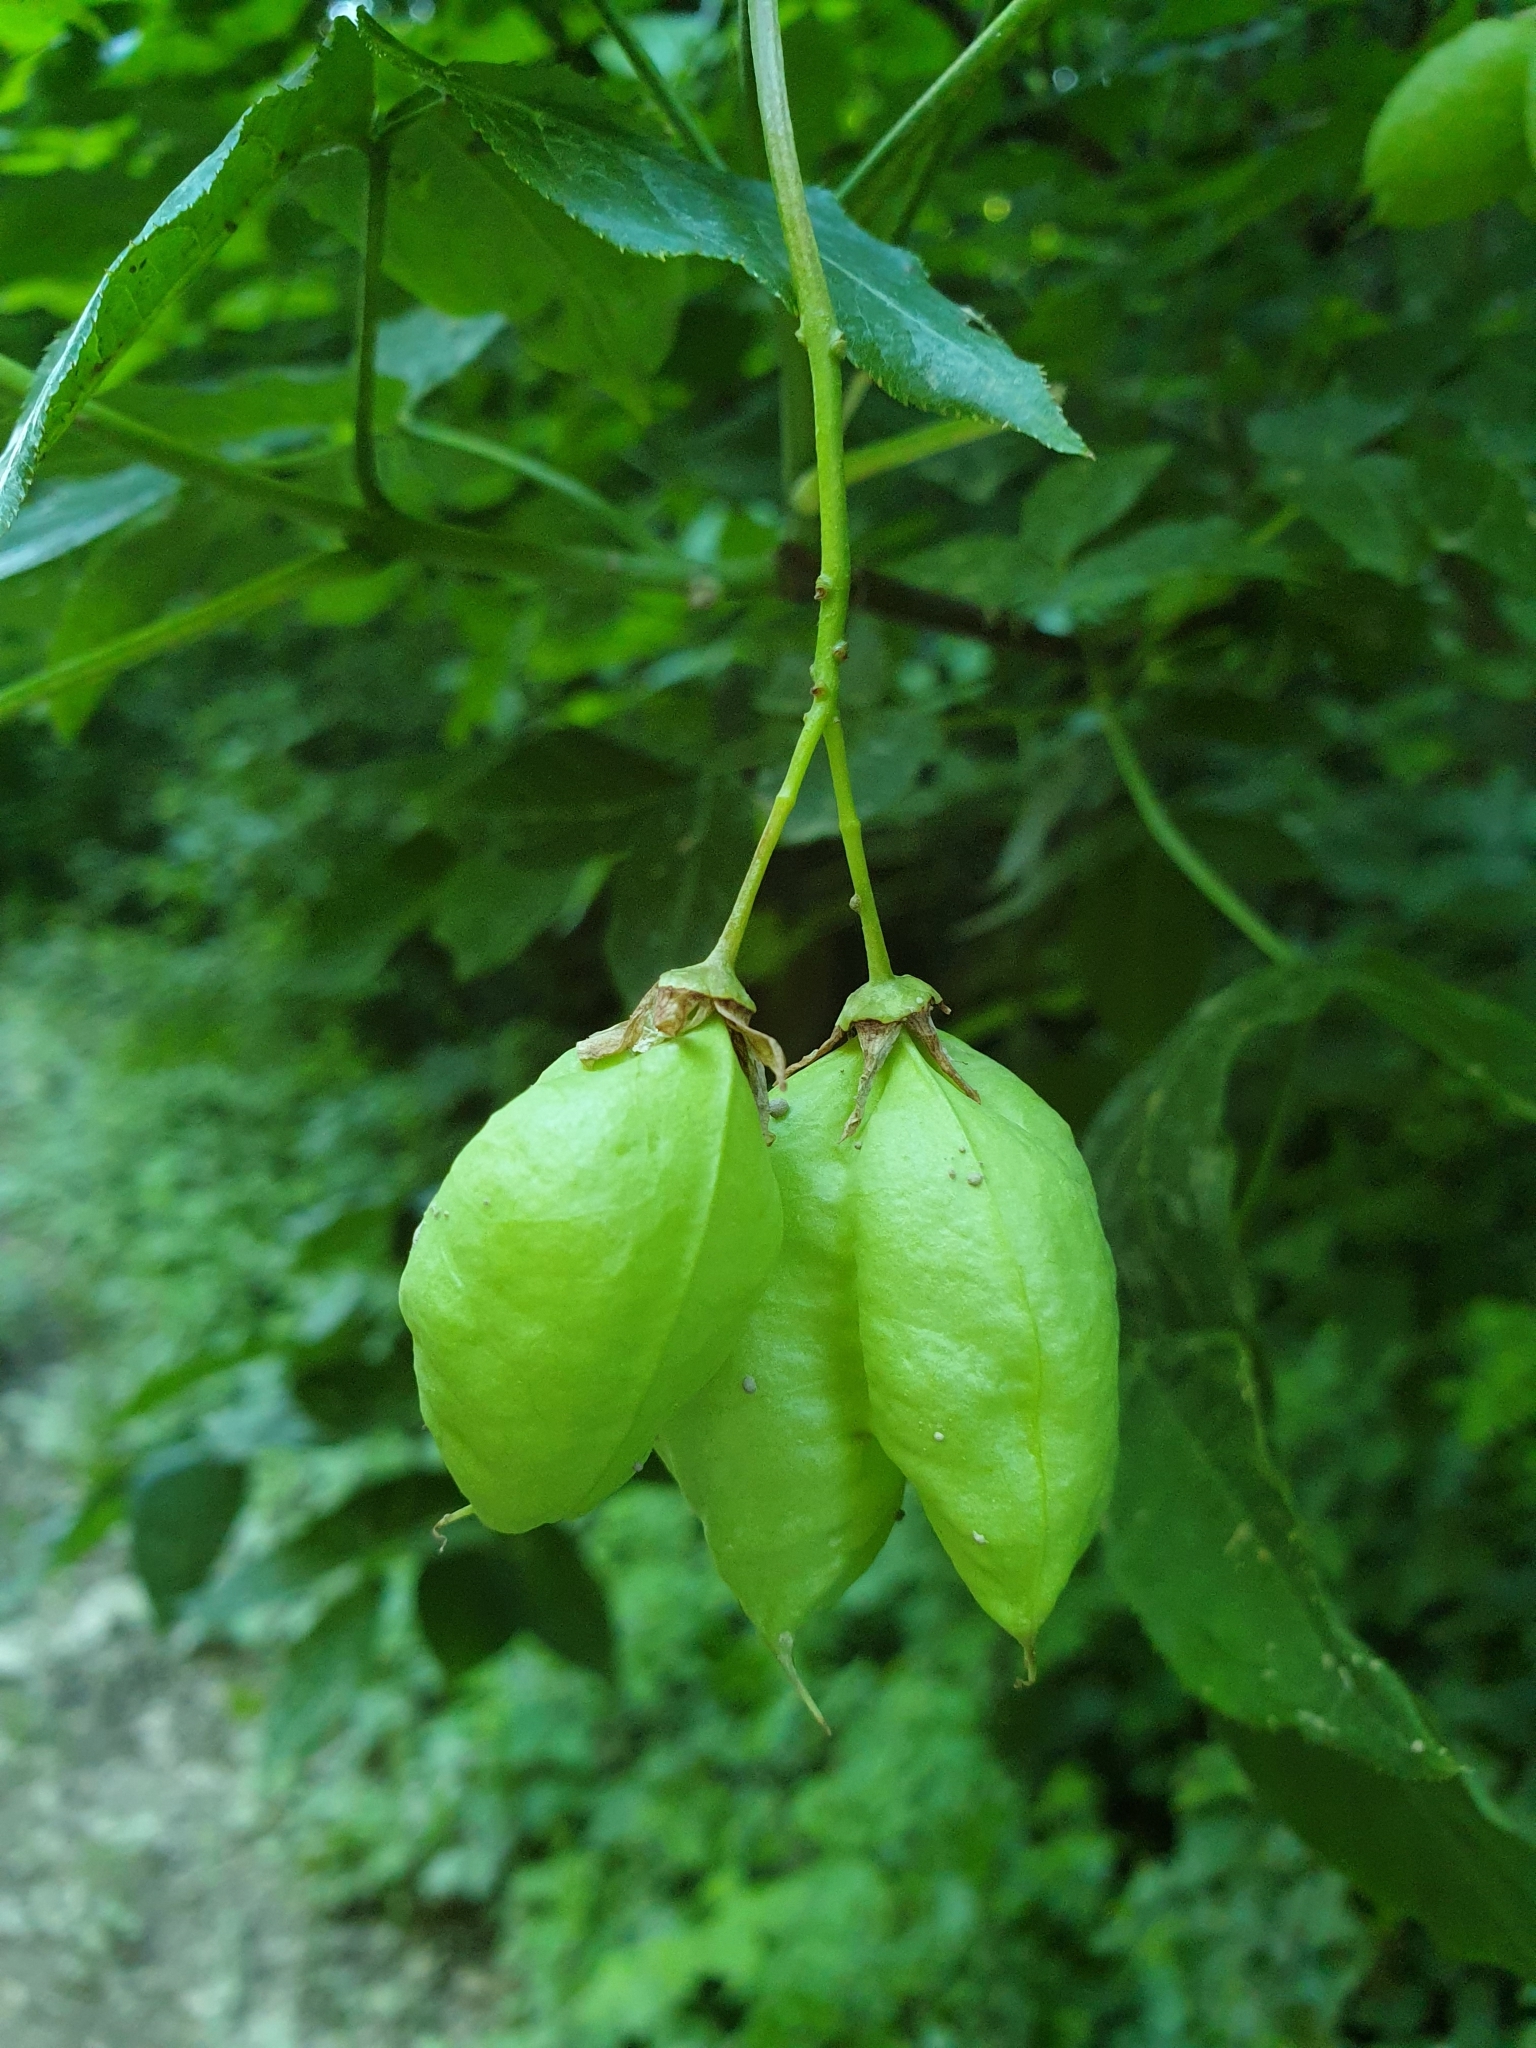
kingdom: Plantae
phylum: Tracheophyta
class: Magnoliopsida
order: Crossosomatales
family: Staphyleaceae
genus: Staphylea
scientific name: Staphylea pinnata
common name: Bladdernut
